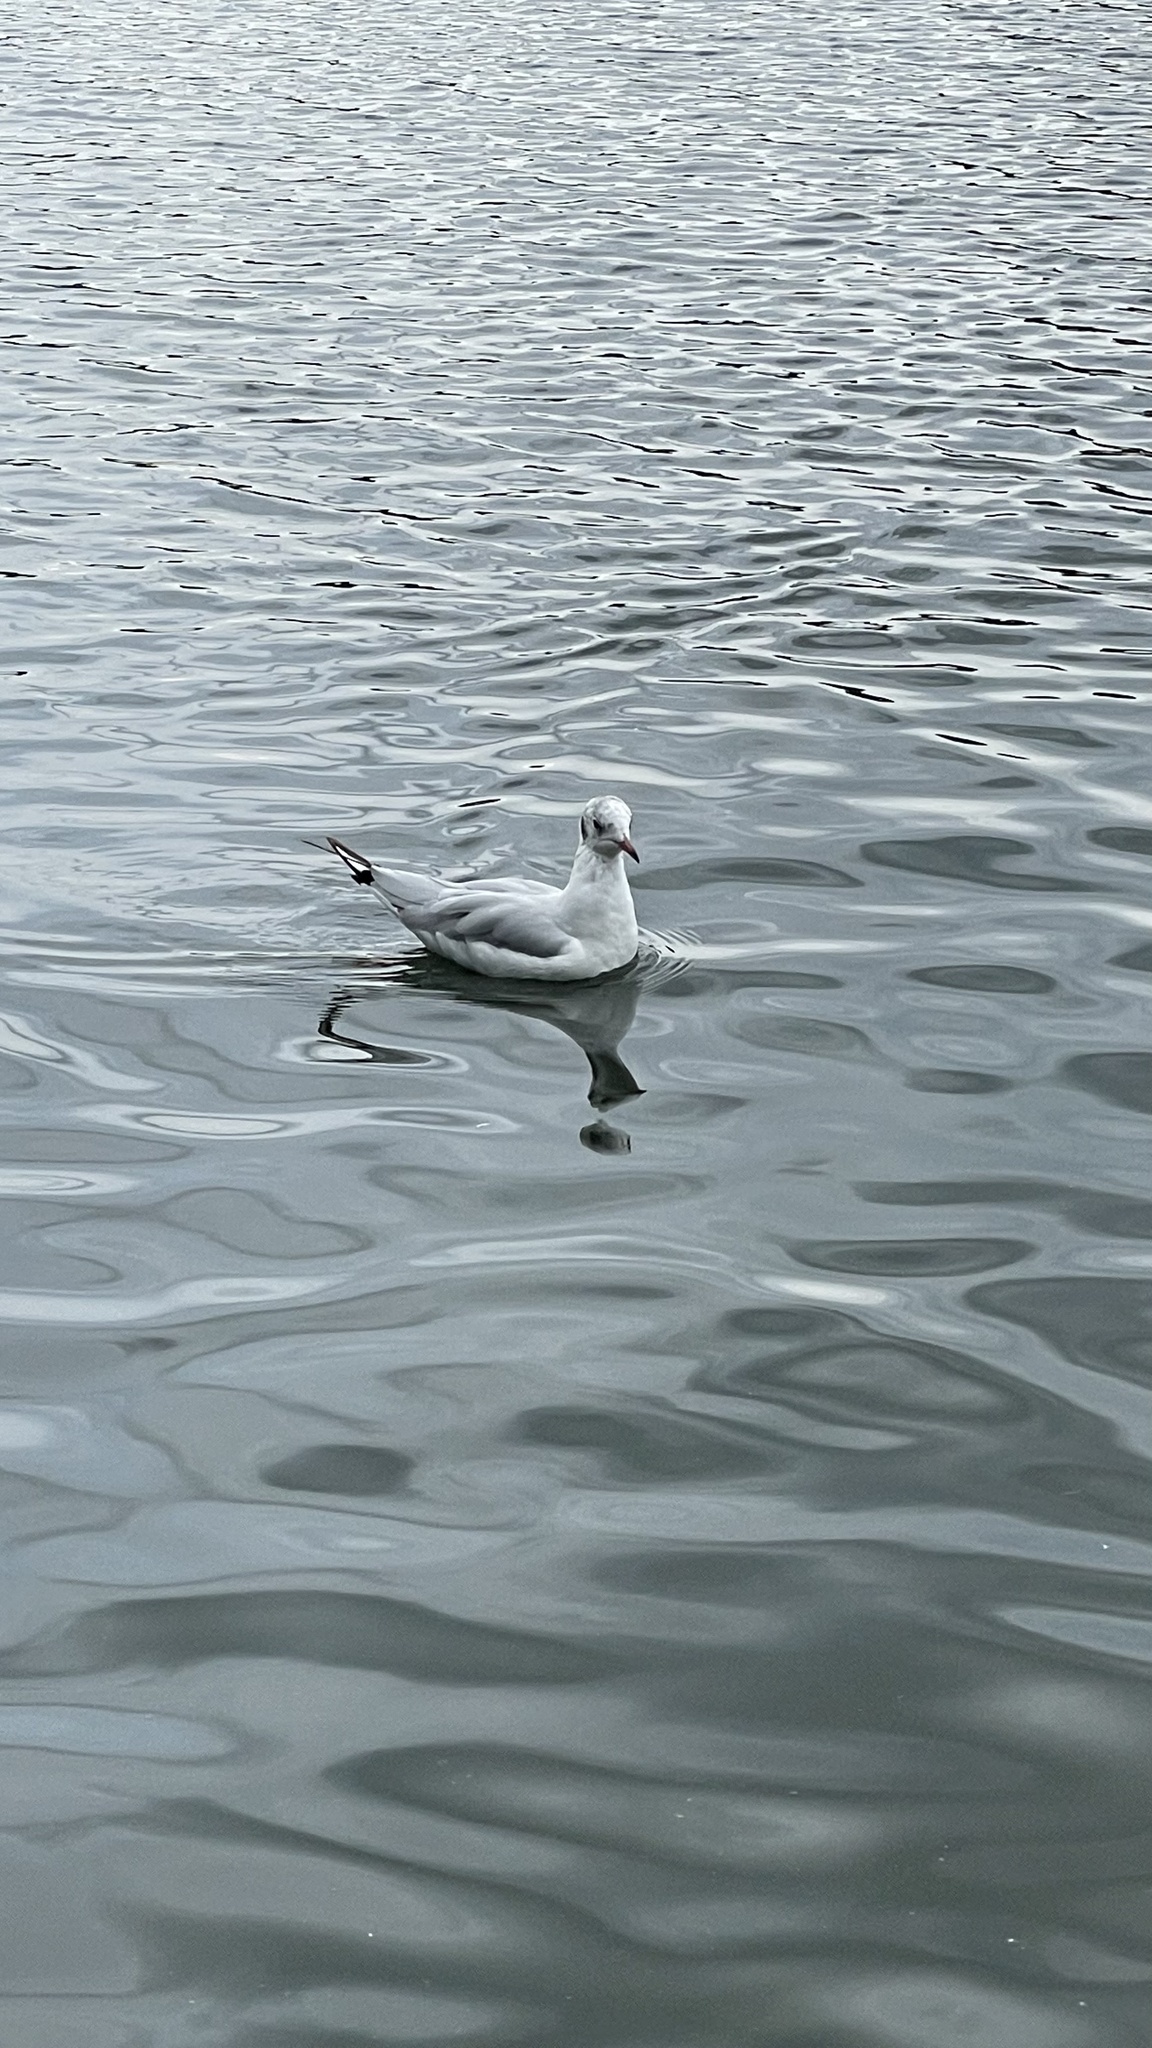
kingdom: Animalia
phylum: Chordata
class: Aves
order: Charadriiformes
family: Laridae
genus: Chroicocephalus
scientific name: Chroicocephalus ridibundus
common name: Black-headed gull
